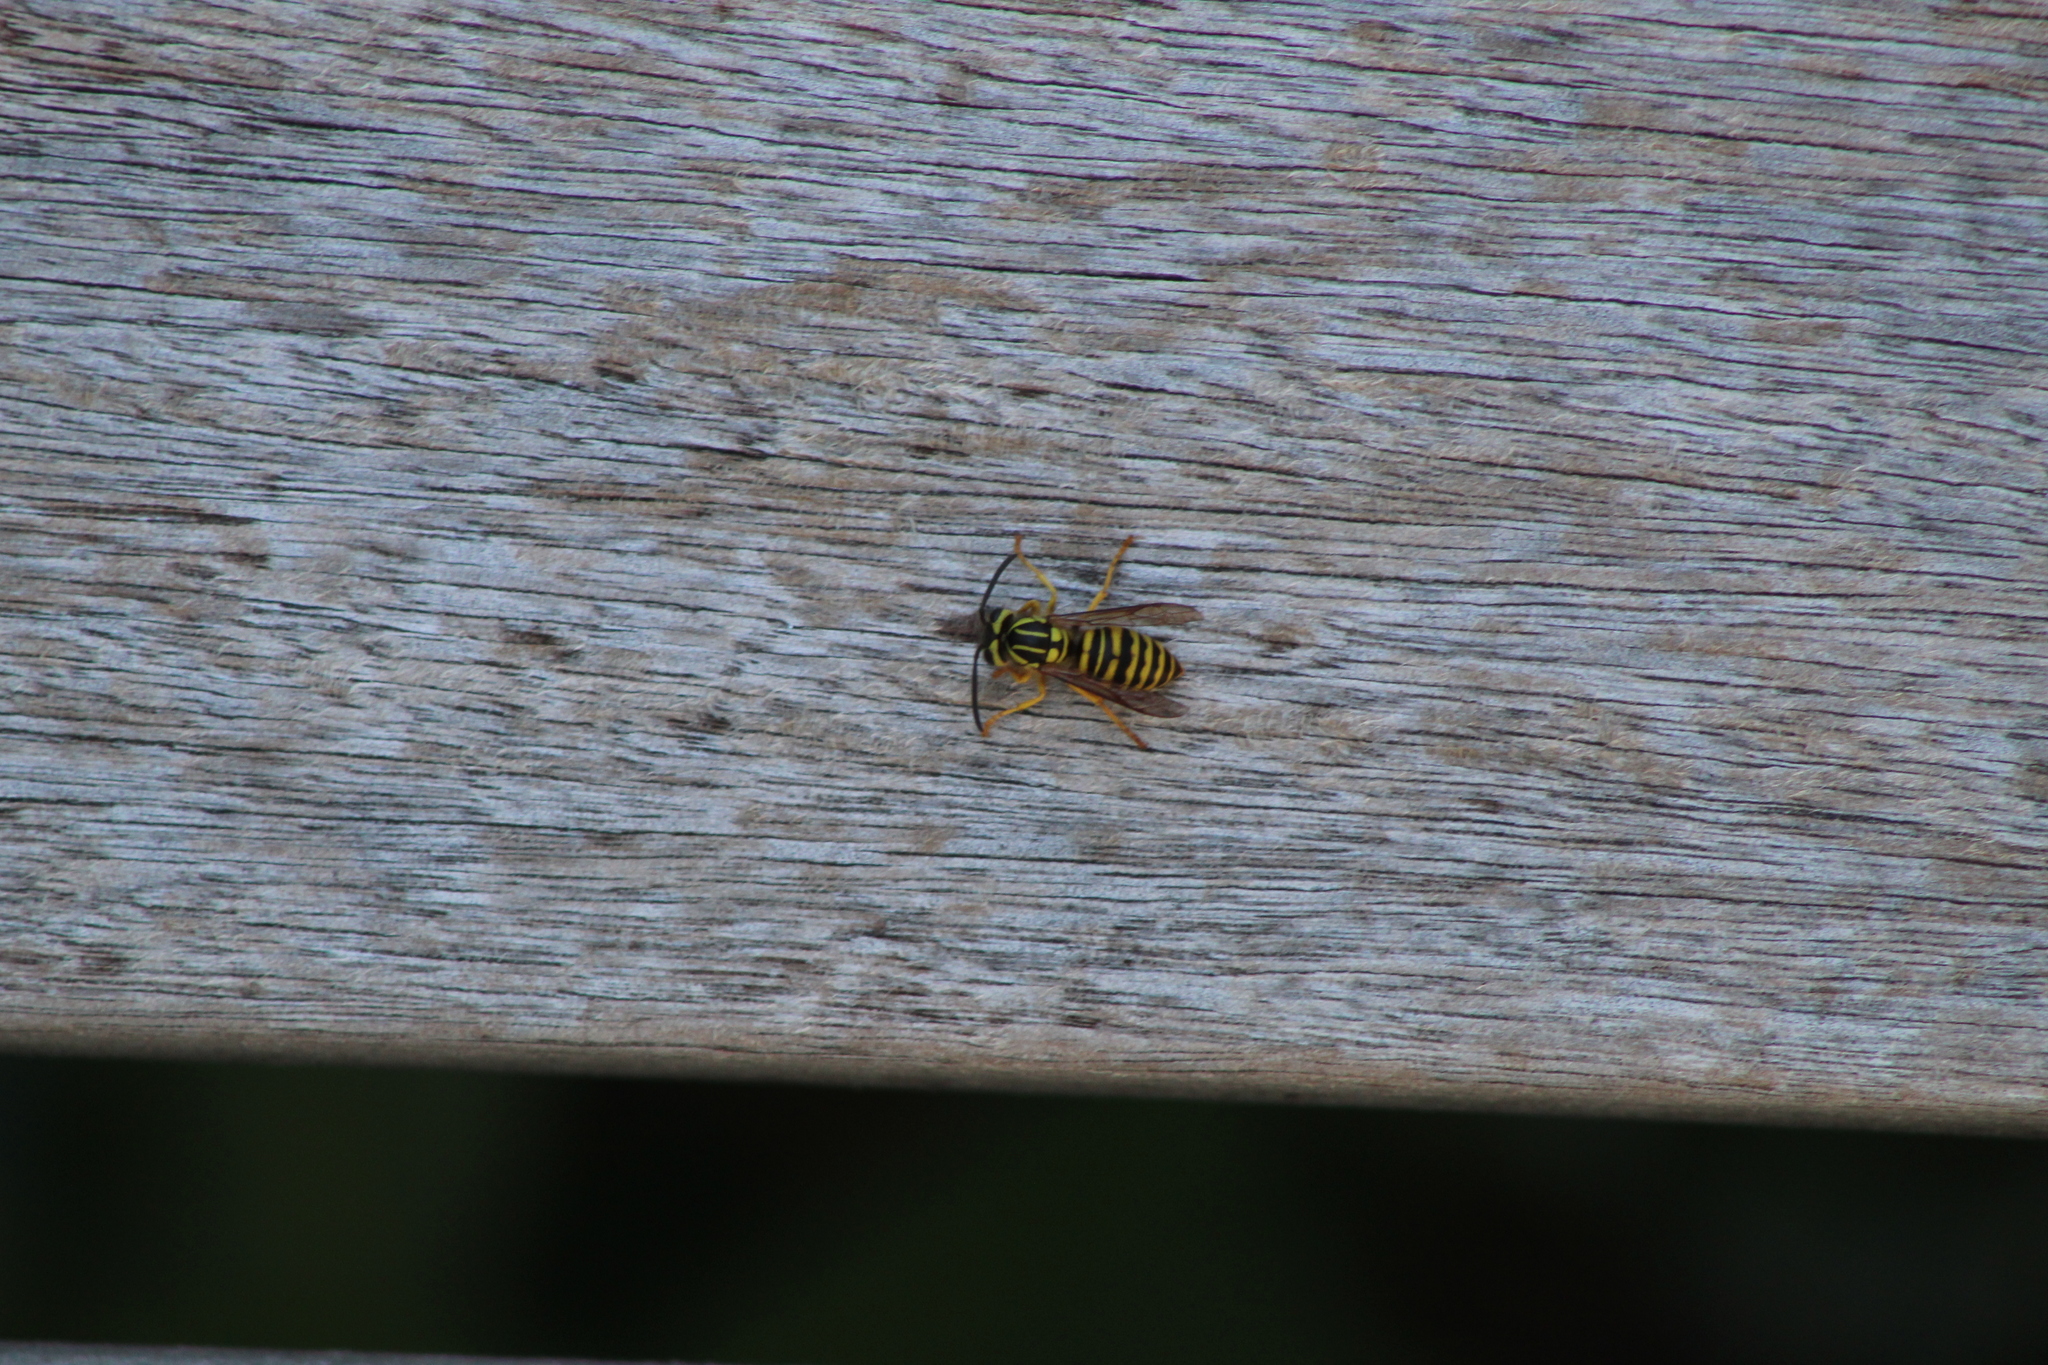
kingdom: Animalia
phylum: Arthropoda
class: Insecta
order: Hymenoptera
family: Vespidae
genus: Vespula
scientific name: Vespula squamosa
